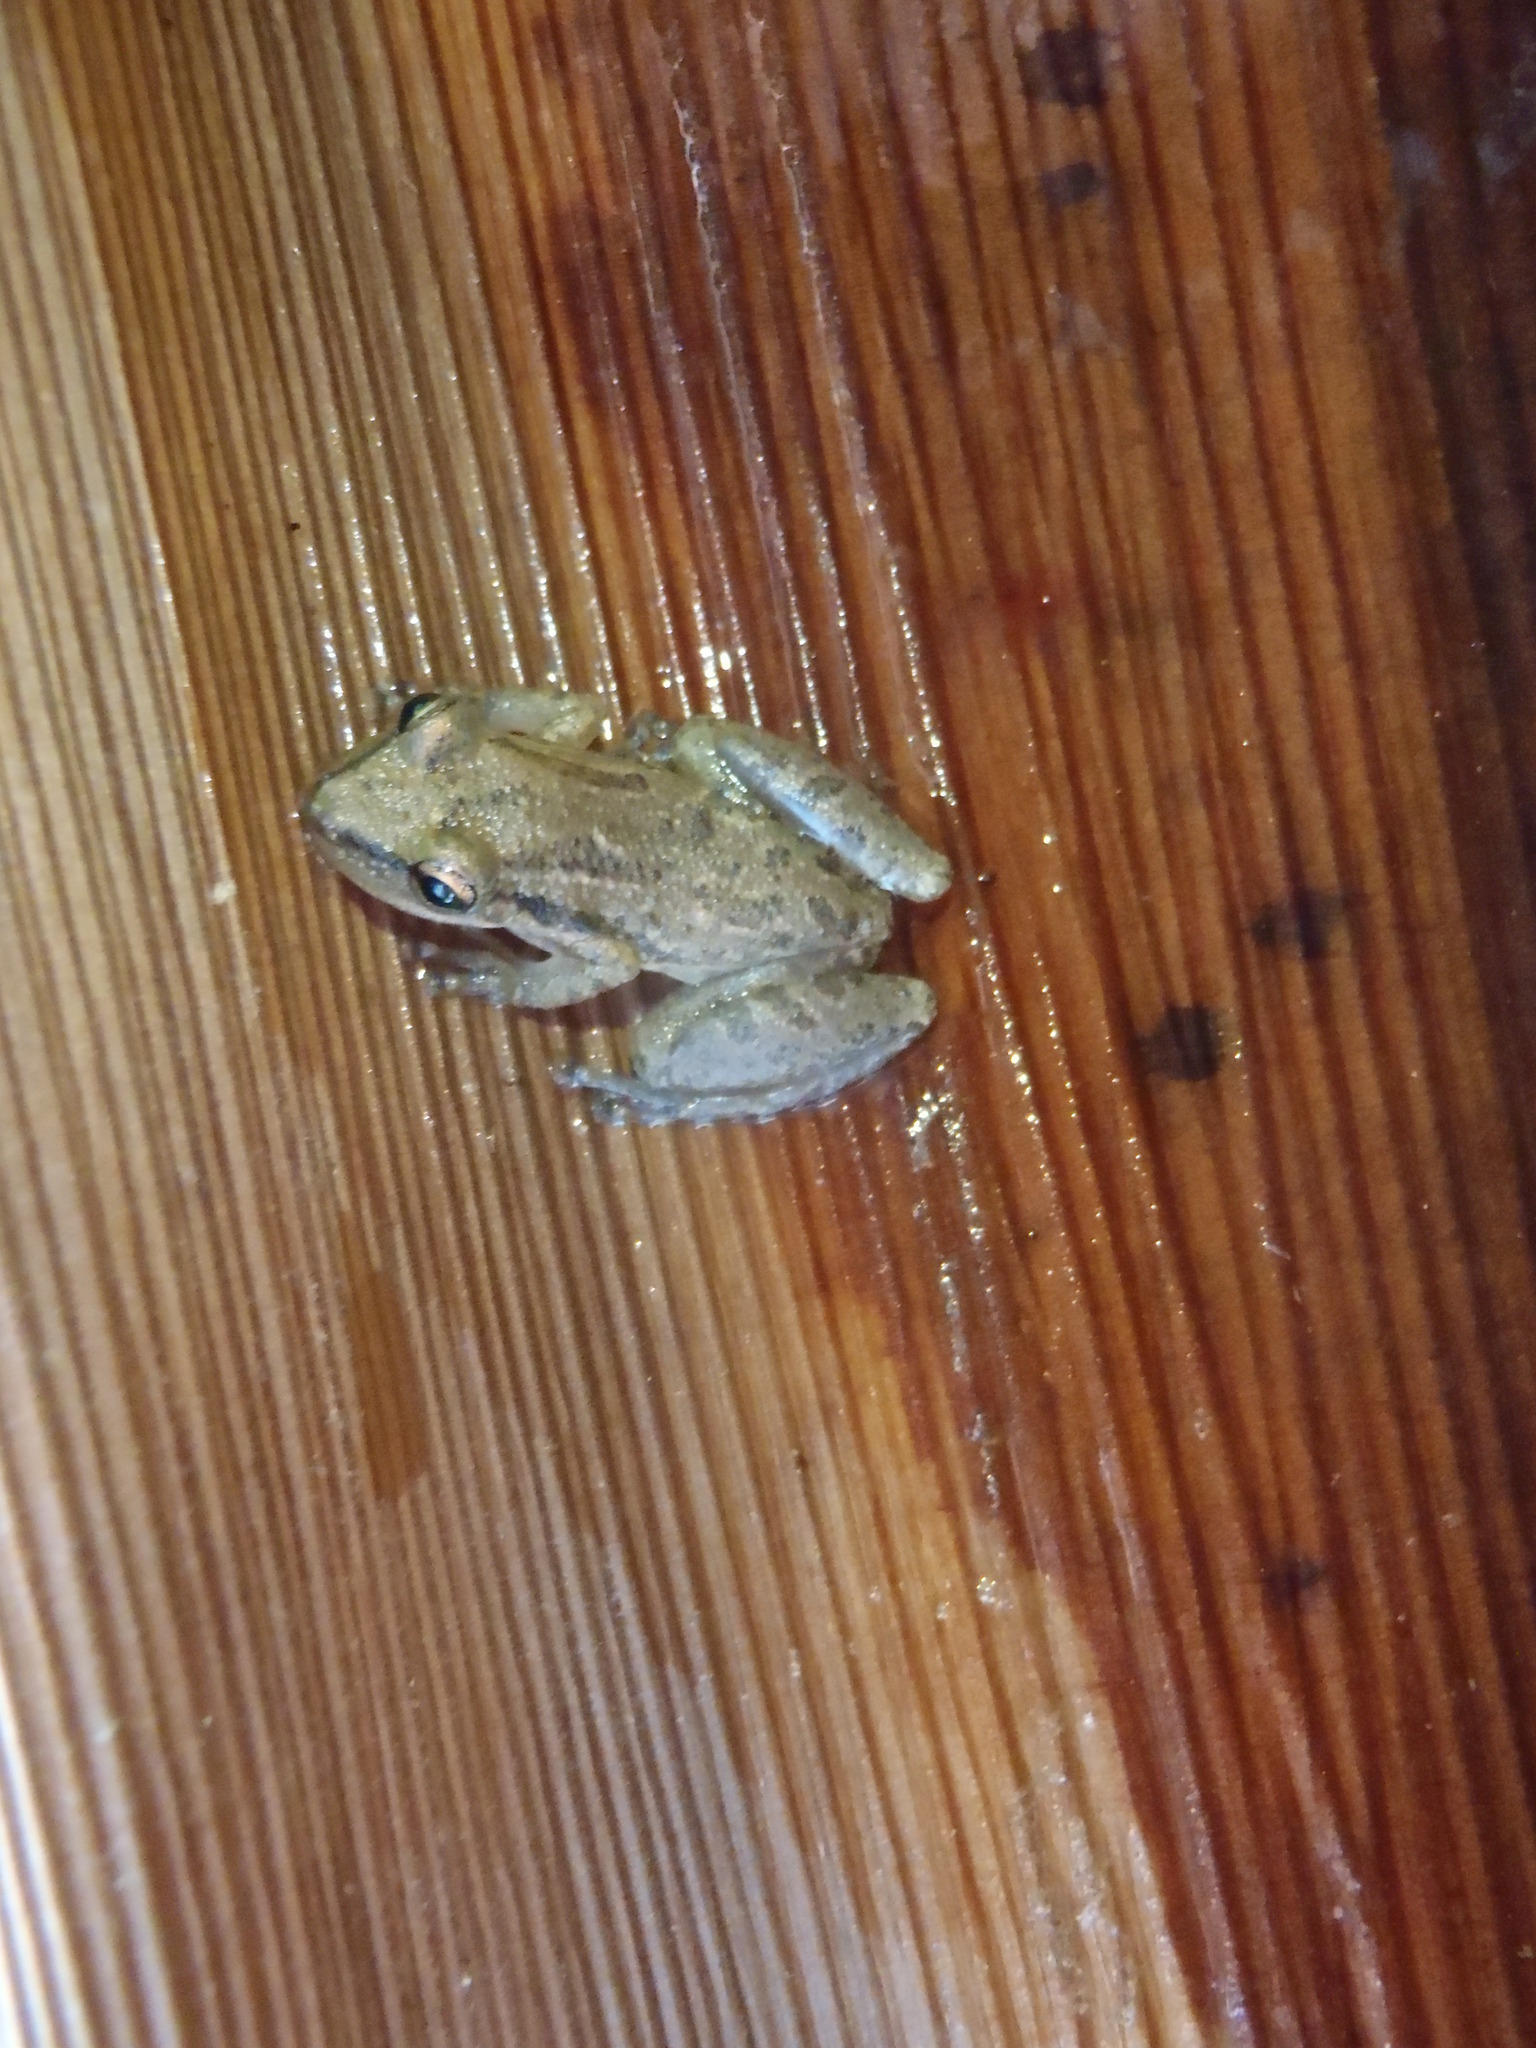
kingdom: Animalia
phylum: Chordata
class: Amphibia
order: Anura
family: Hylidae
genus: Scinax
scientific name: Scinax staufferi
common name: Stauffer's long-nosed treefrog
